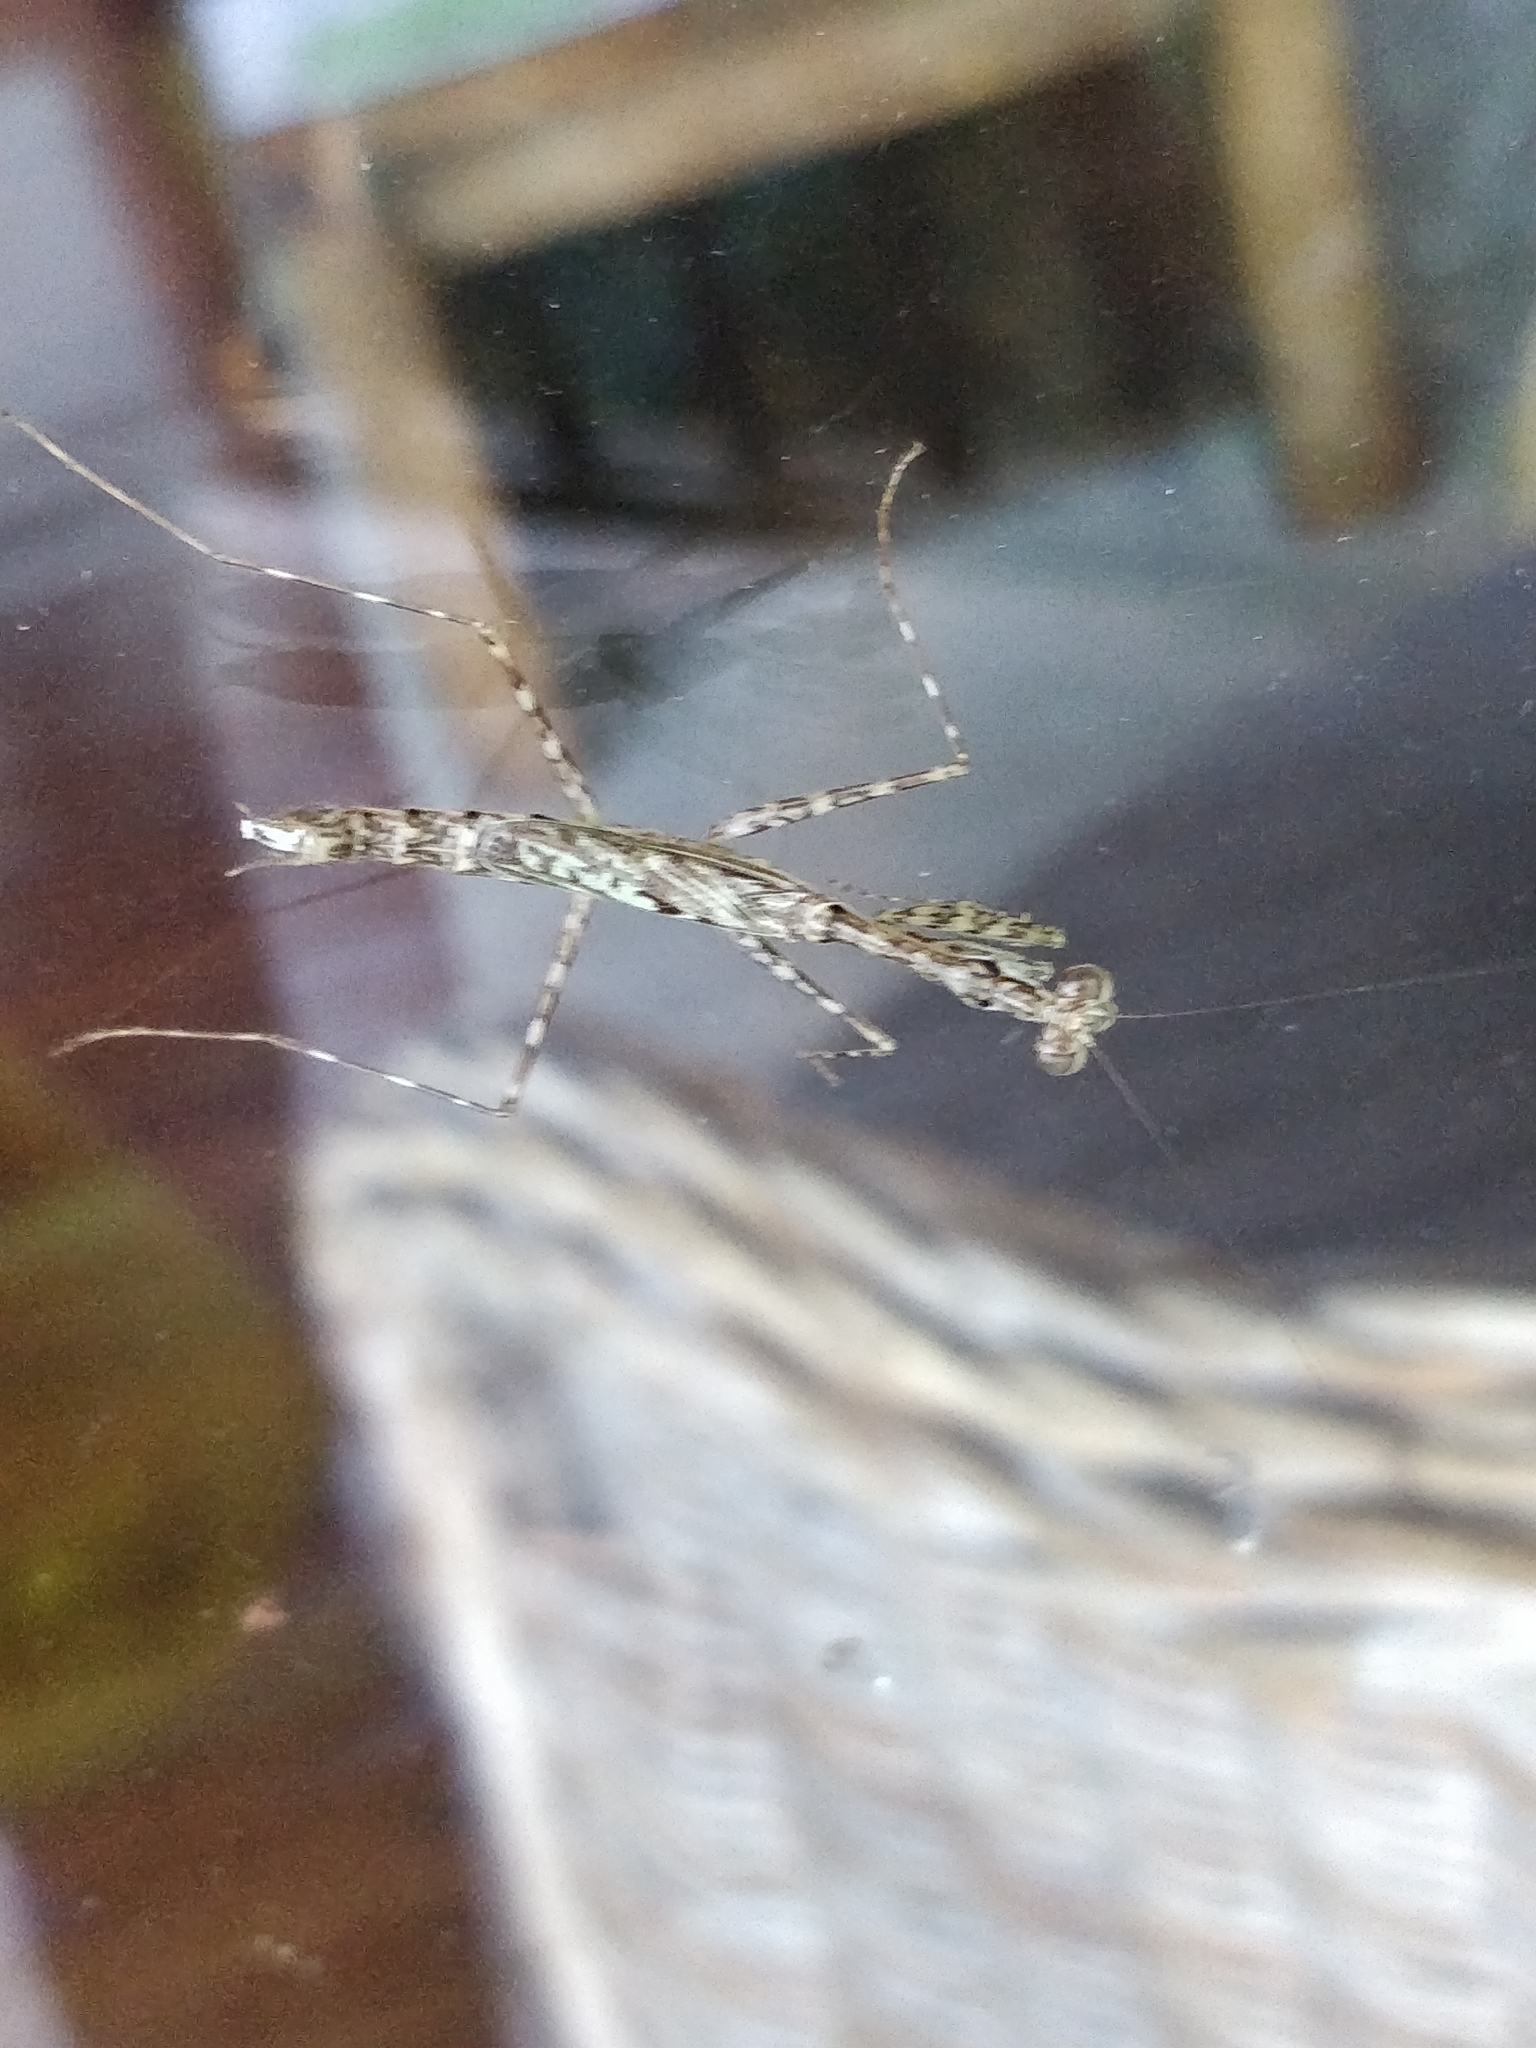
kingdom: Animalia
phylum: Arthropoda
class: Insecta
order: Mantodea
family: Nanomantidae
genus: Ciulfina
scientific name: Ciulfina rentzi
